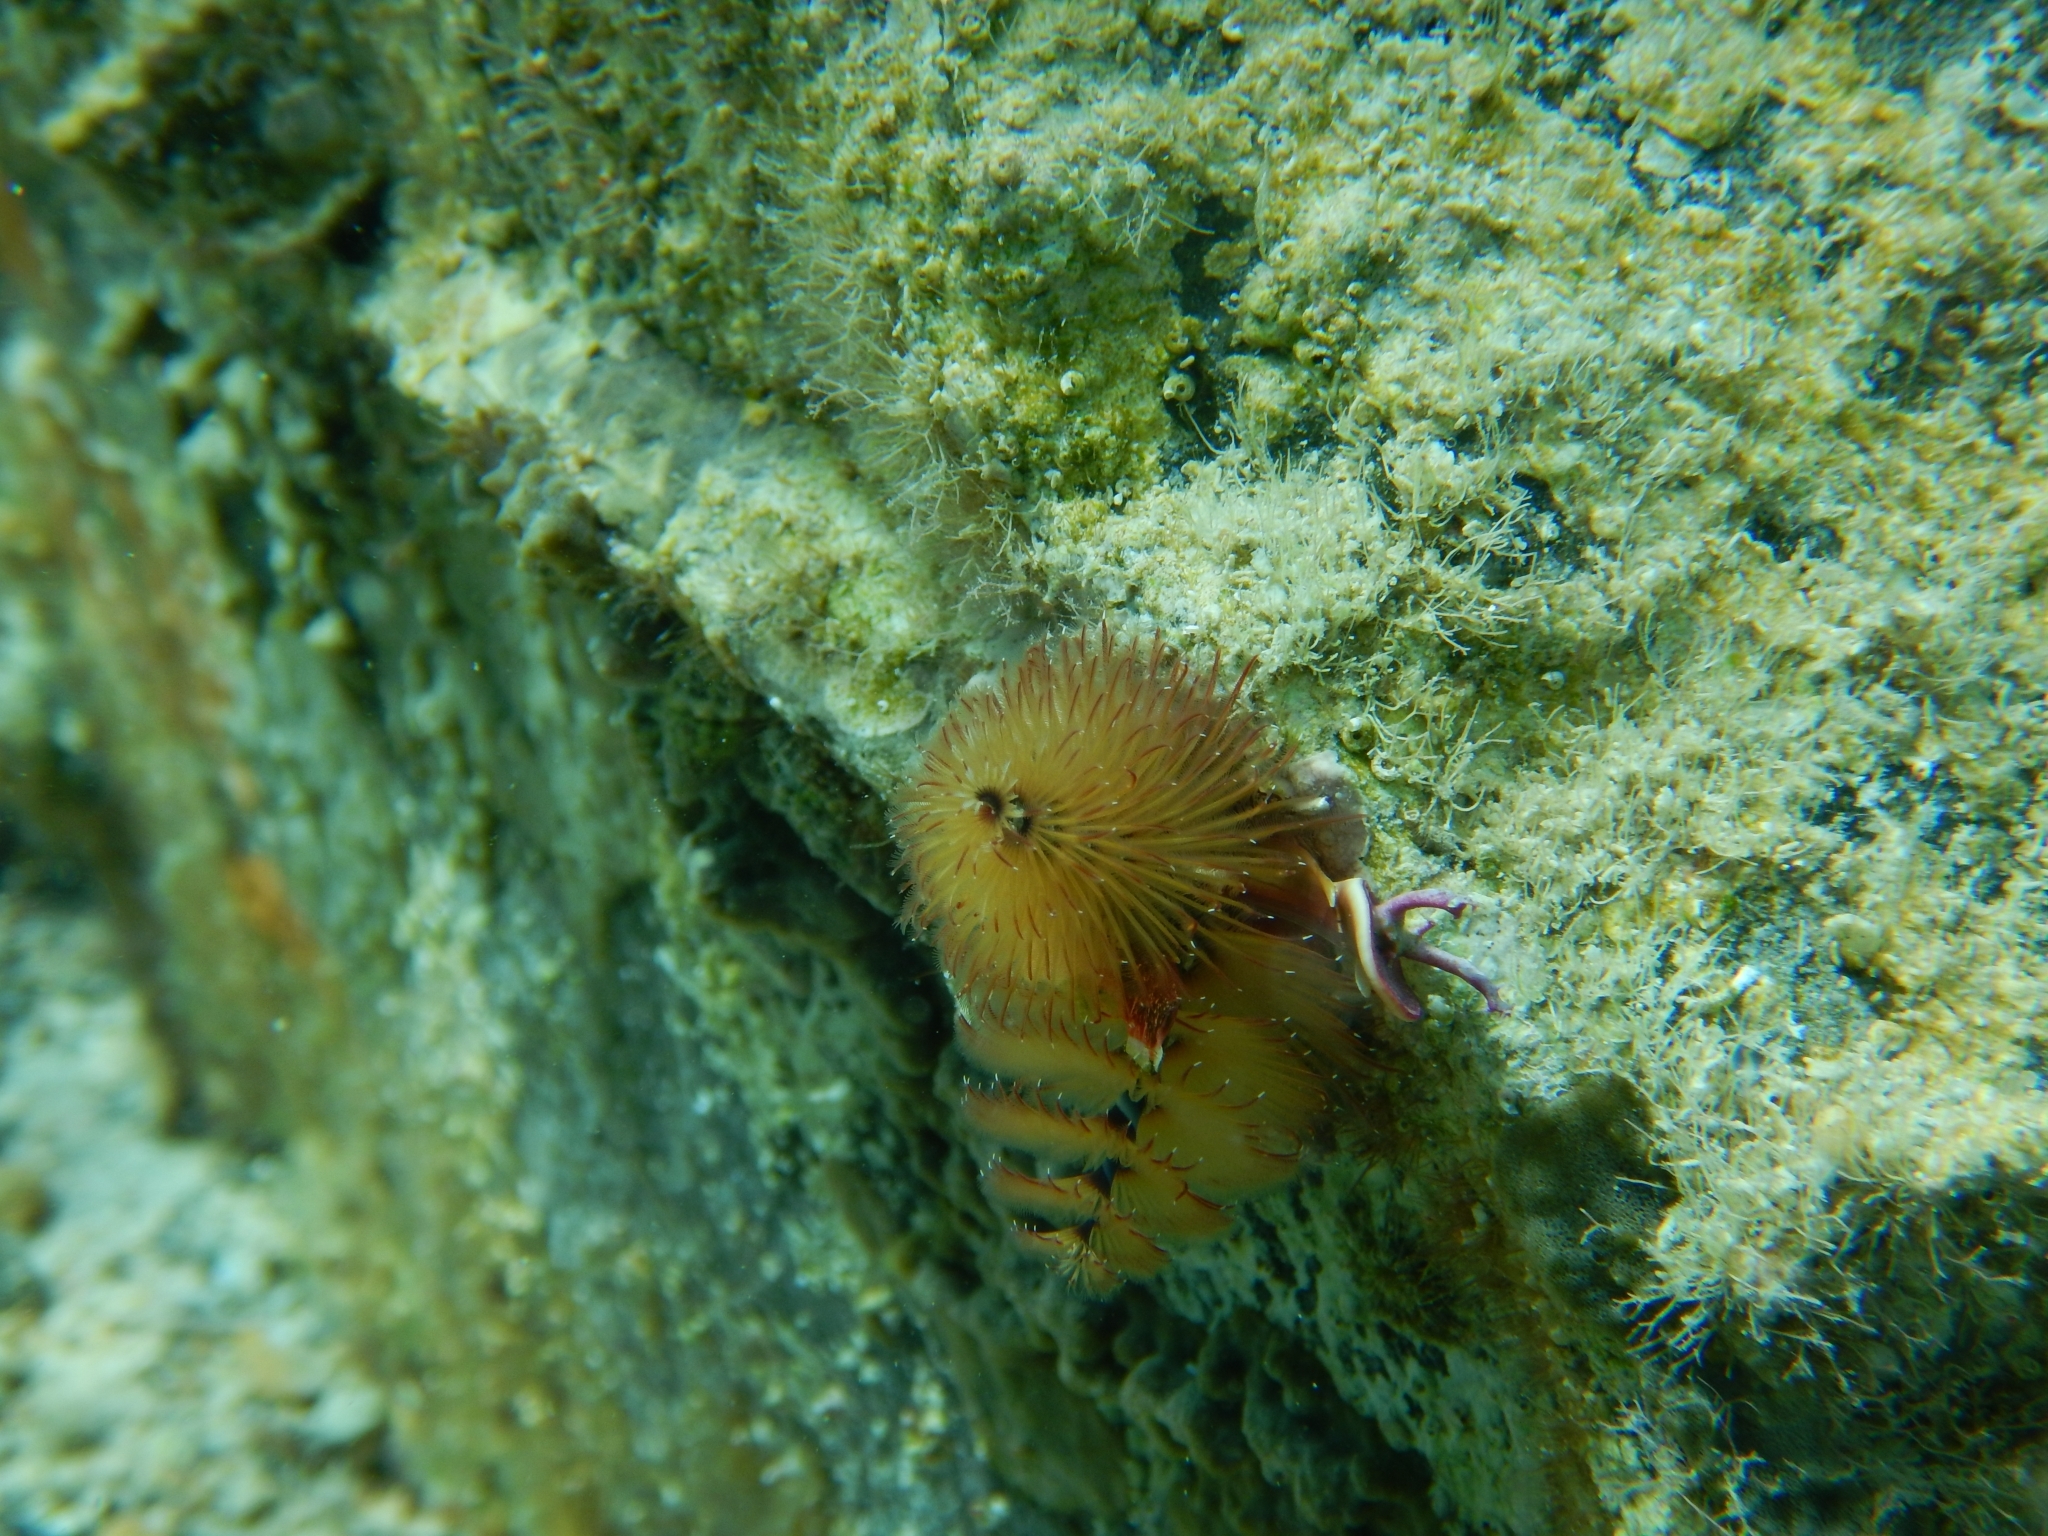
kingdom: Animalia
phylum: Annelida
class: Polychaeta
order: Sabellida
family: Serpulidae
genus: Spirobranchus
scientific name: Spirobranchus giganteus
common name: Christmas tree worm
